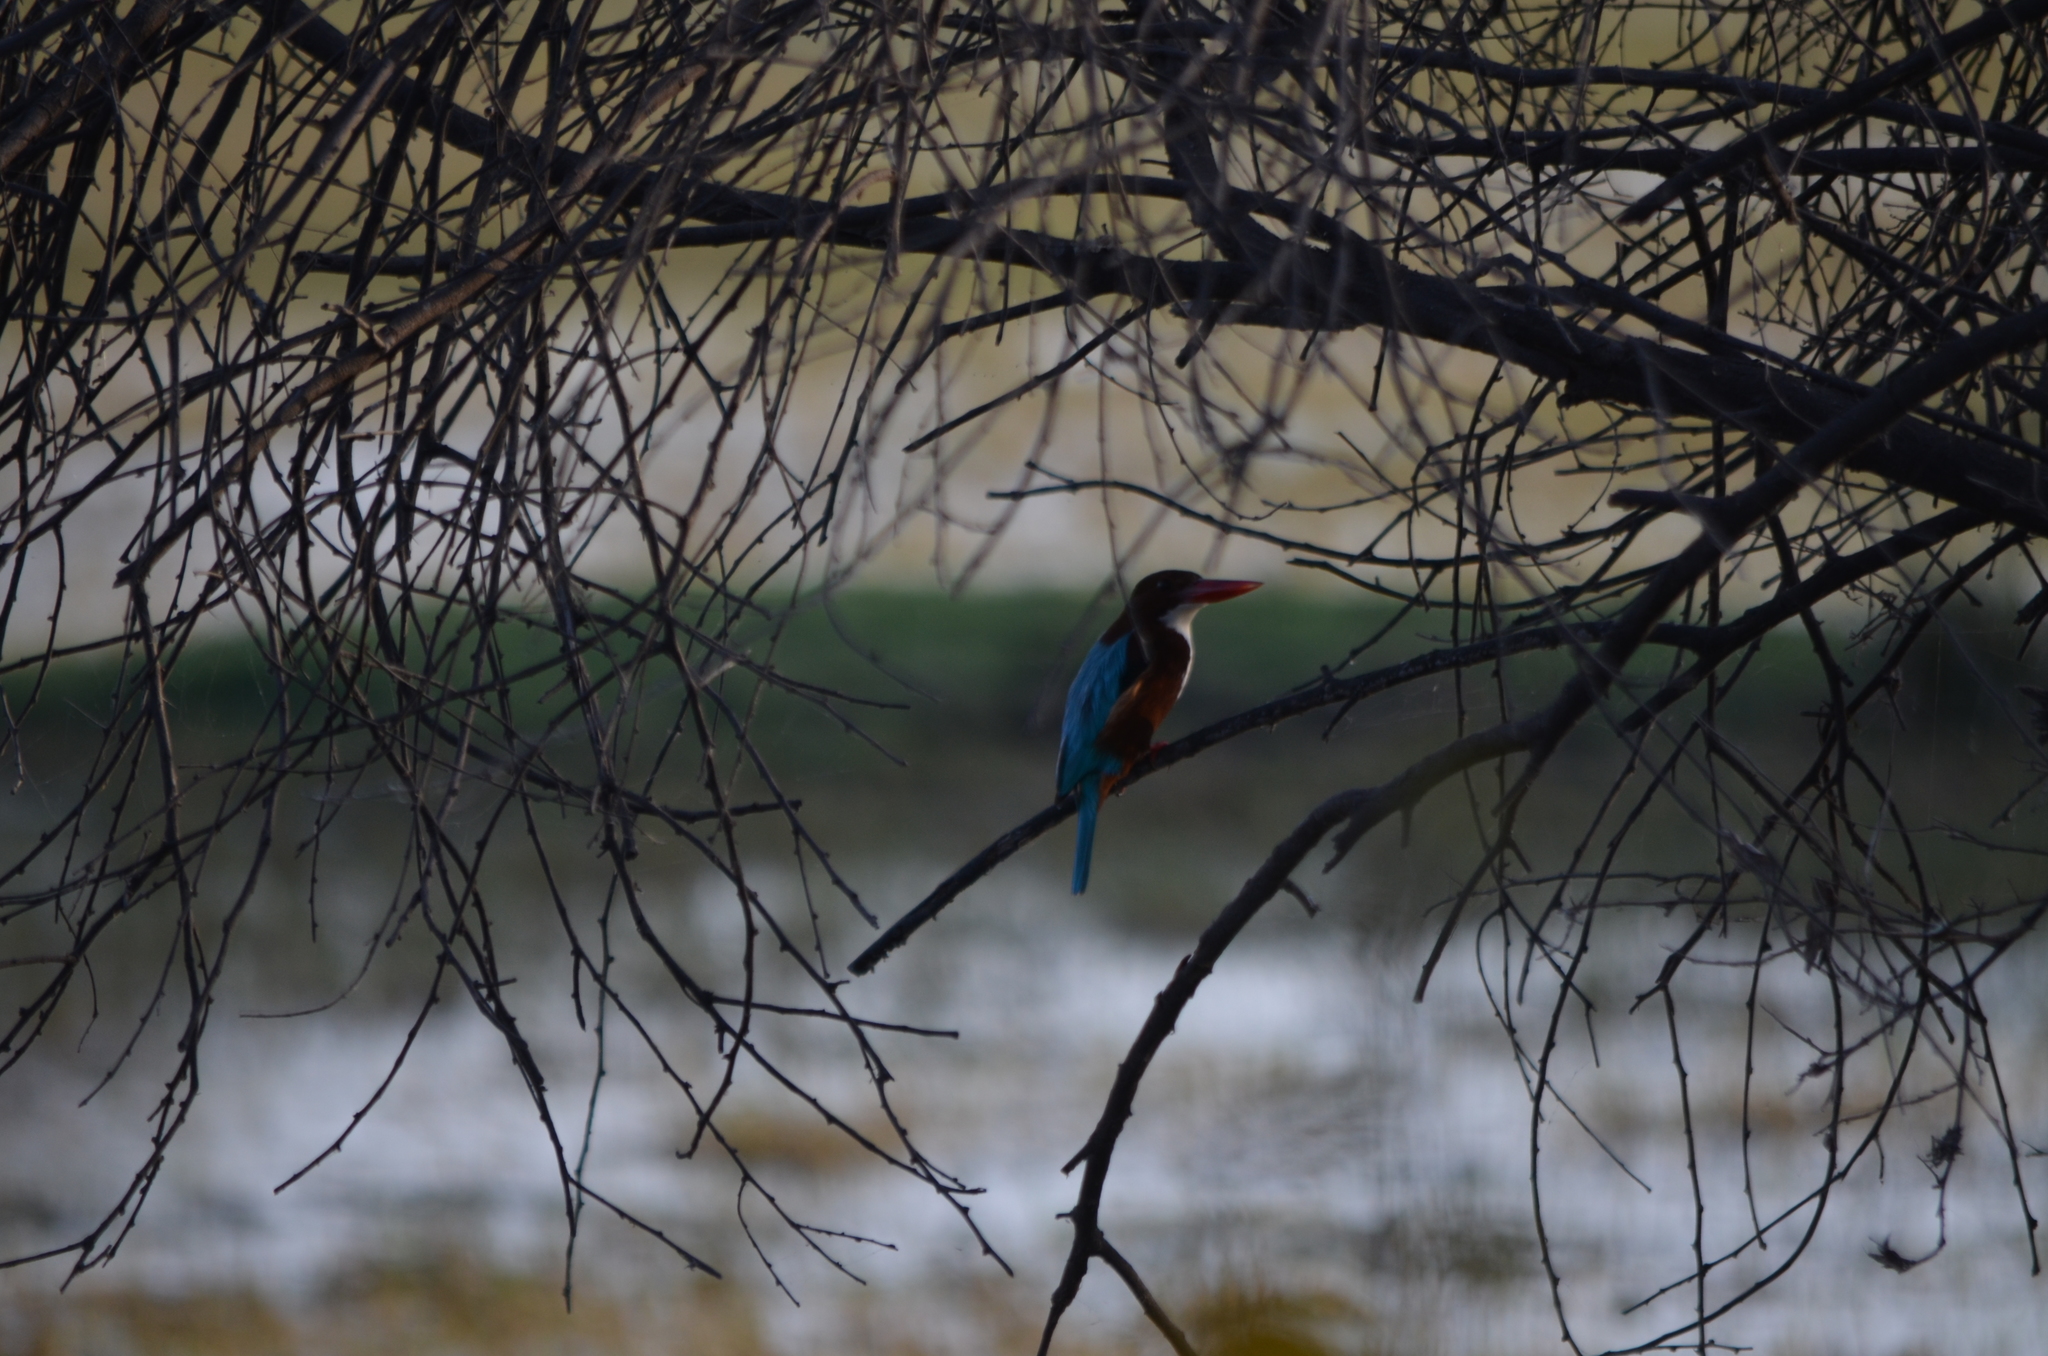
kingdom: Animalia
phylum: Chordata
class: Aves
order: Coraciiformes
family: Alcedinidae
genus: Halcyon
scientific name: Halcyon smyrnensis
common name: White-throated kingfisher
